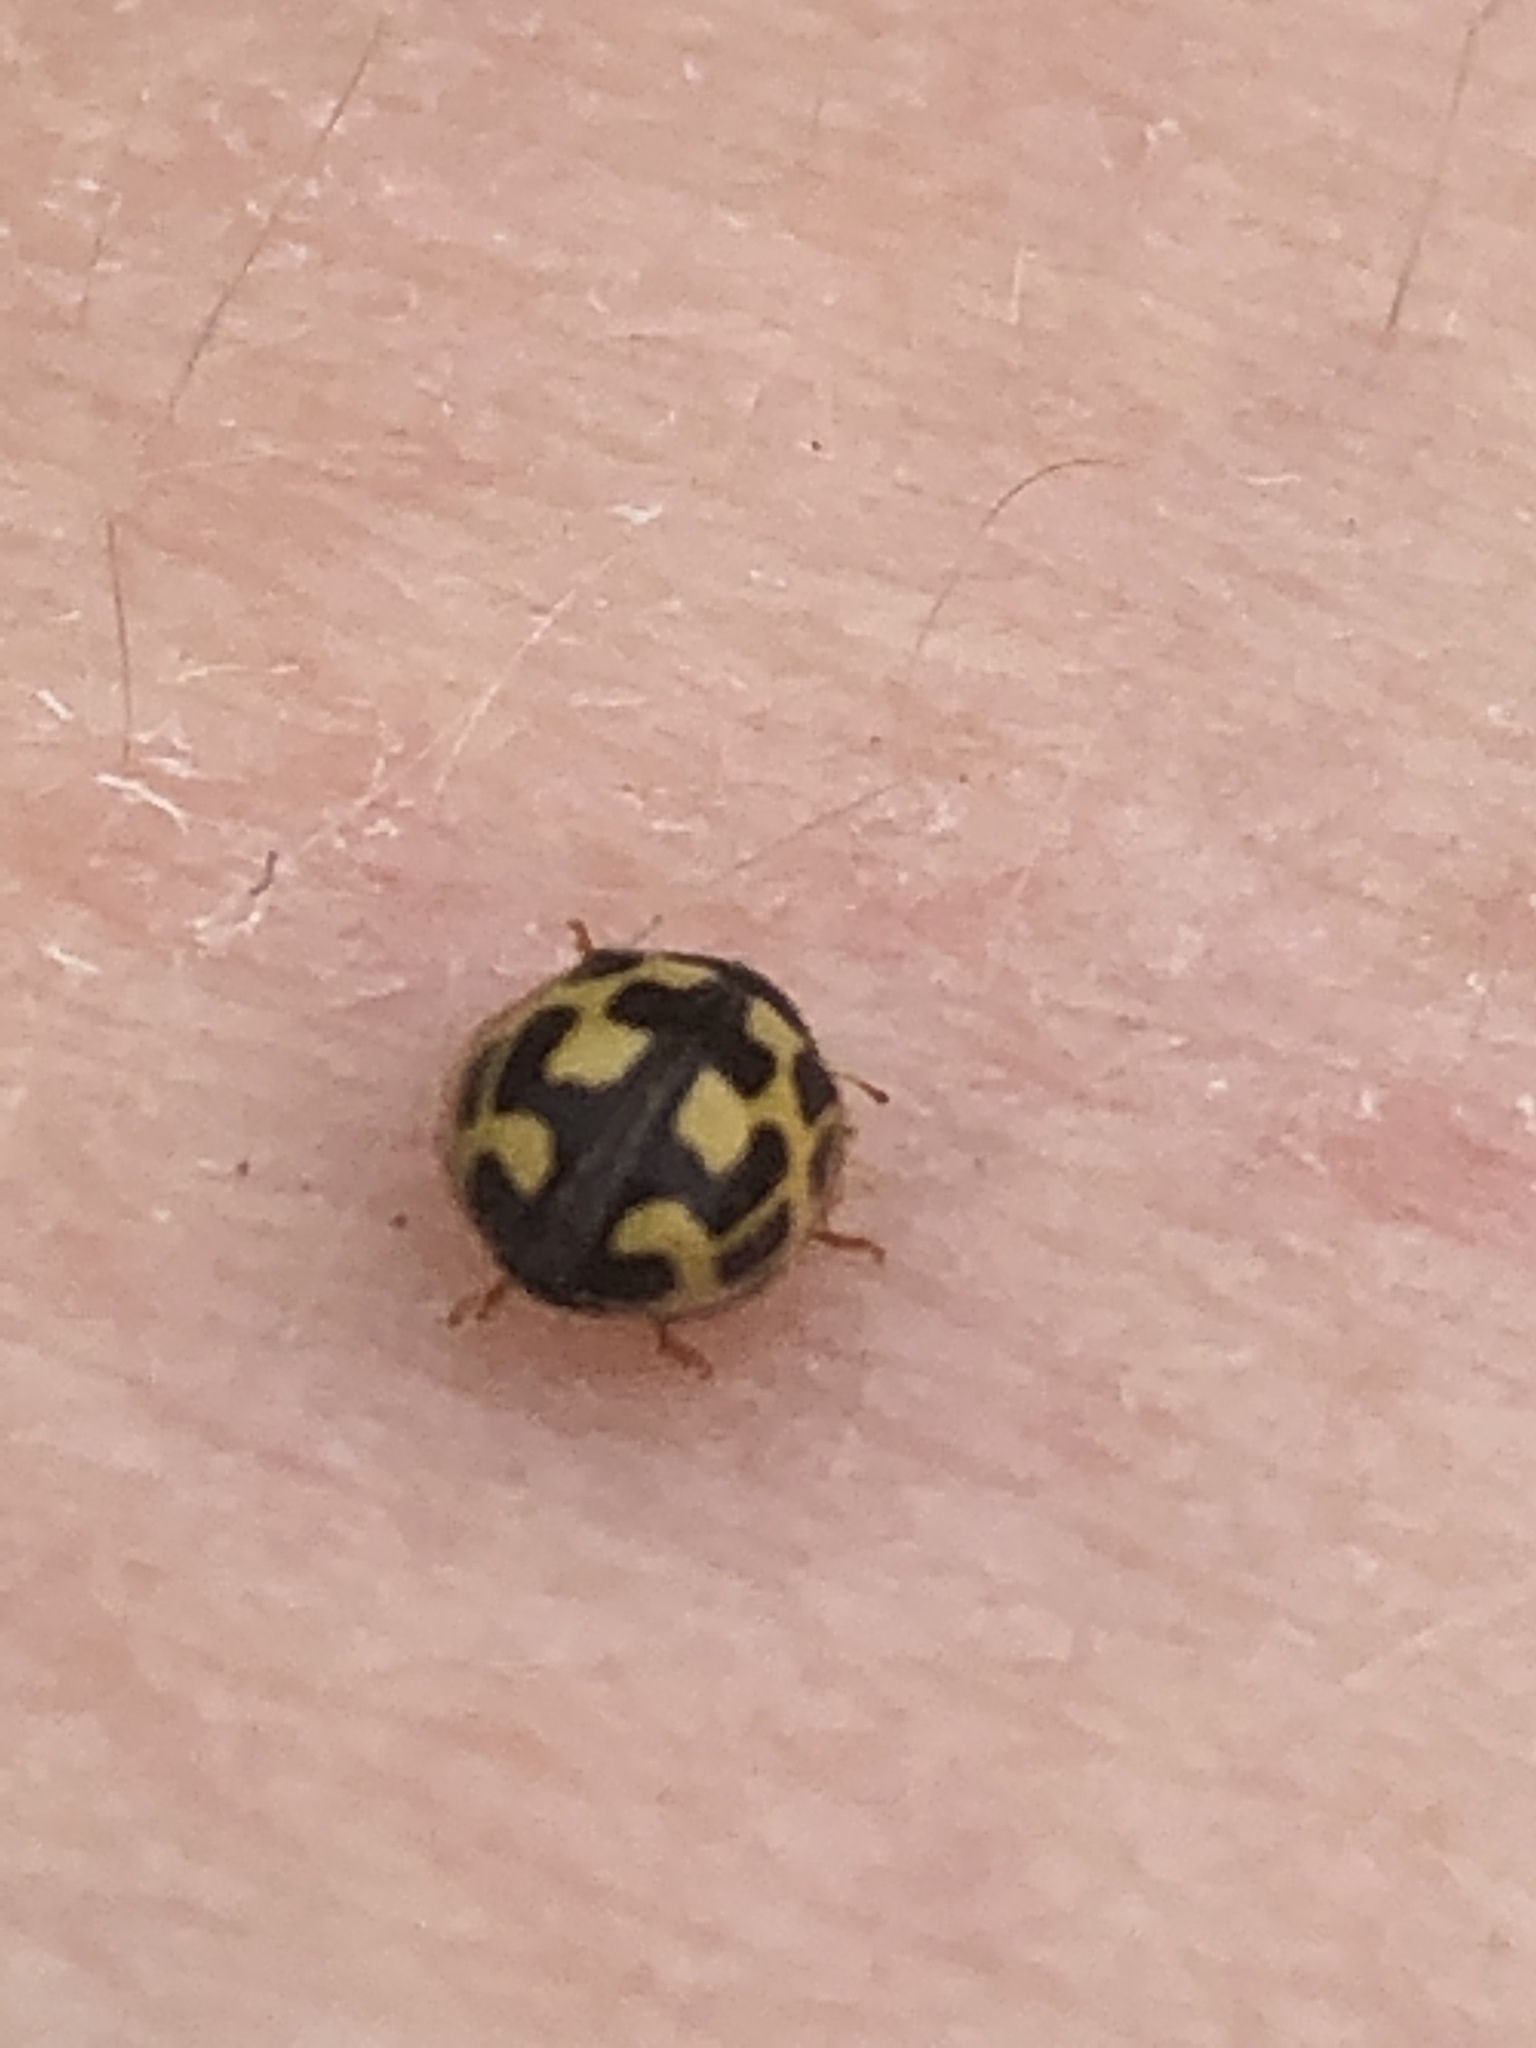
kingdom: Animalia
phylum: Arthropoda
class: Insecta
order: Coleoptera
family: Coccinellidae
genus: Propylaea
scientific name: Propylaea quatuordecimpunctata
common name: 14-spotted ladybird beetle
